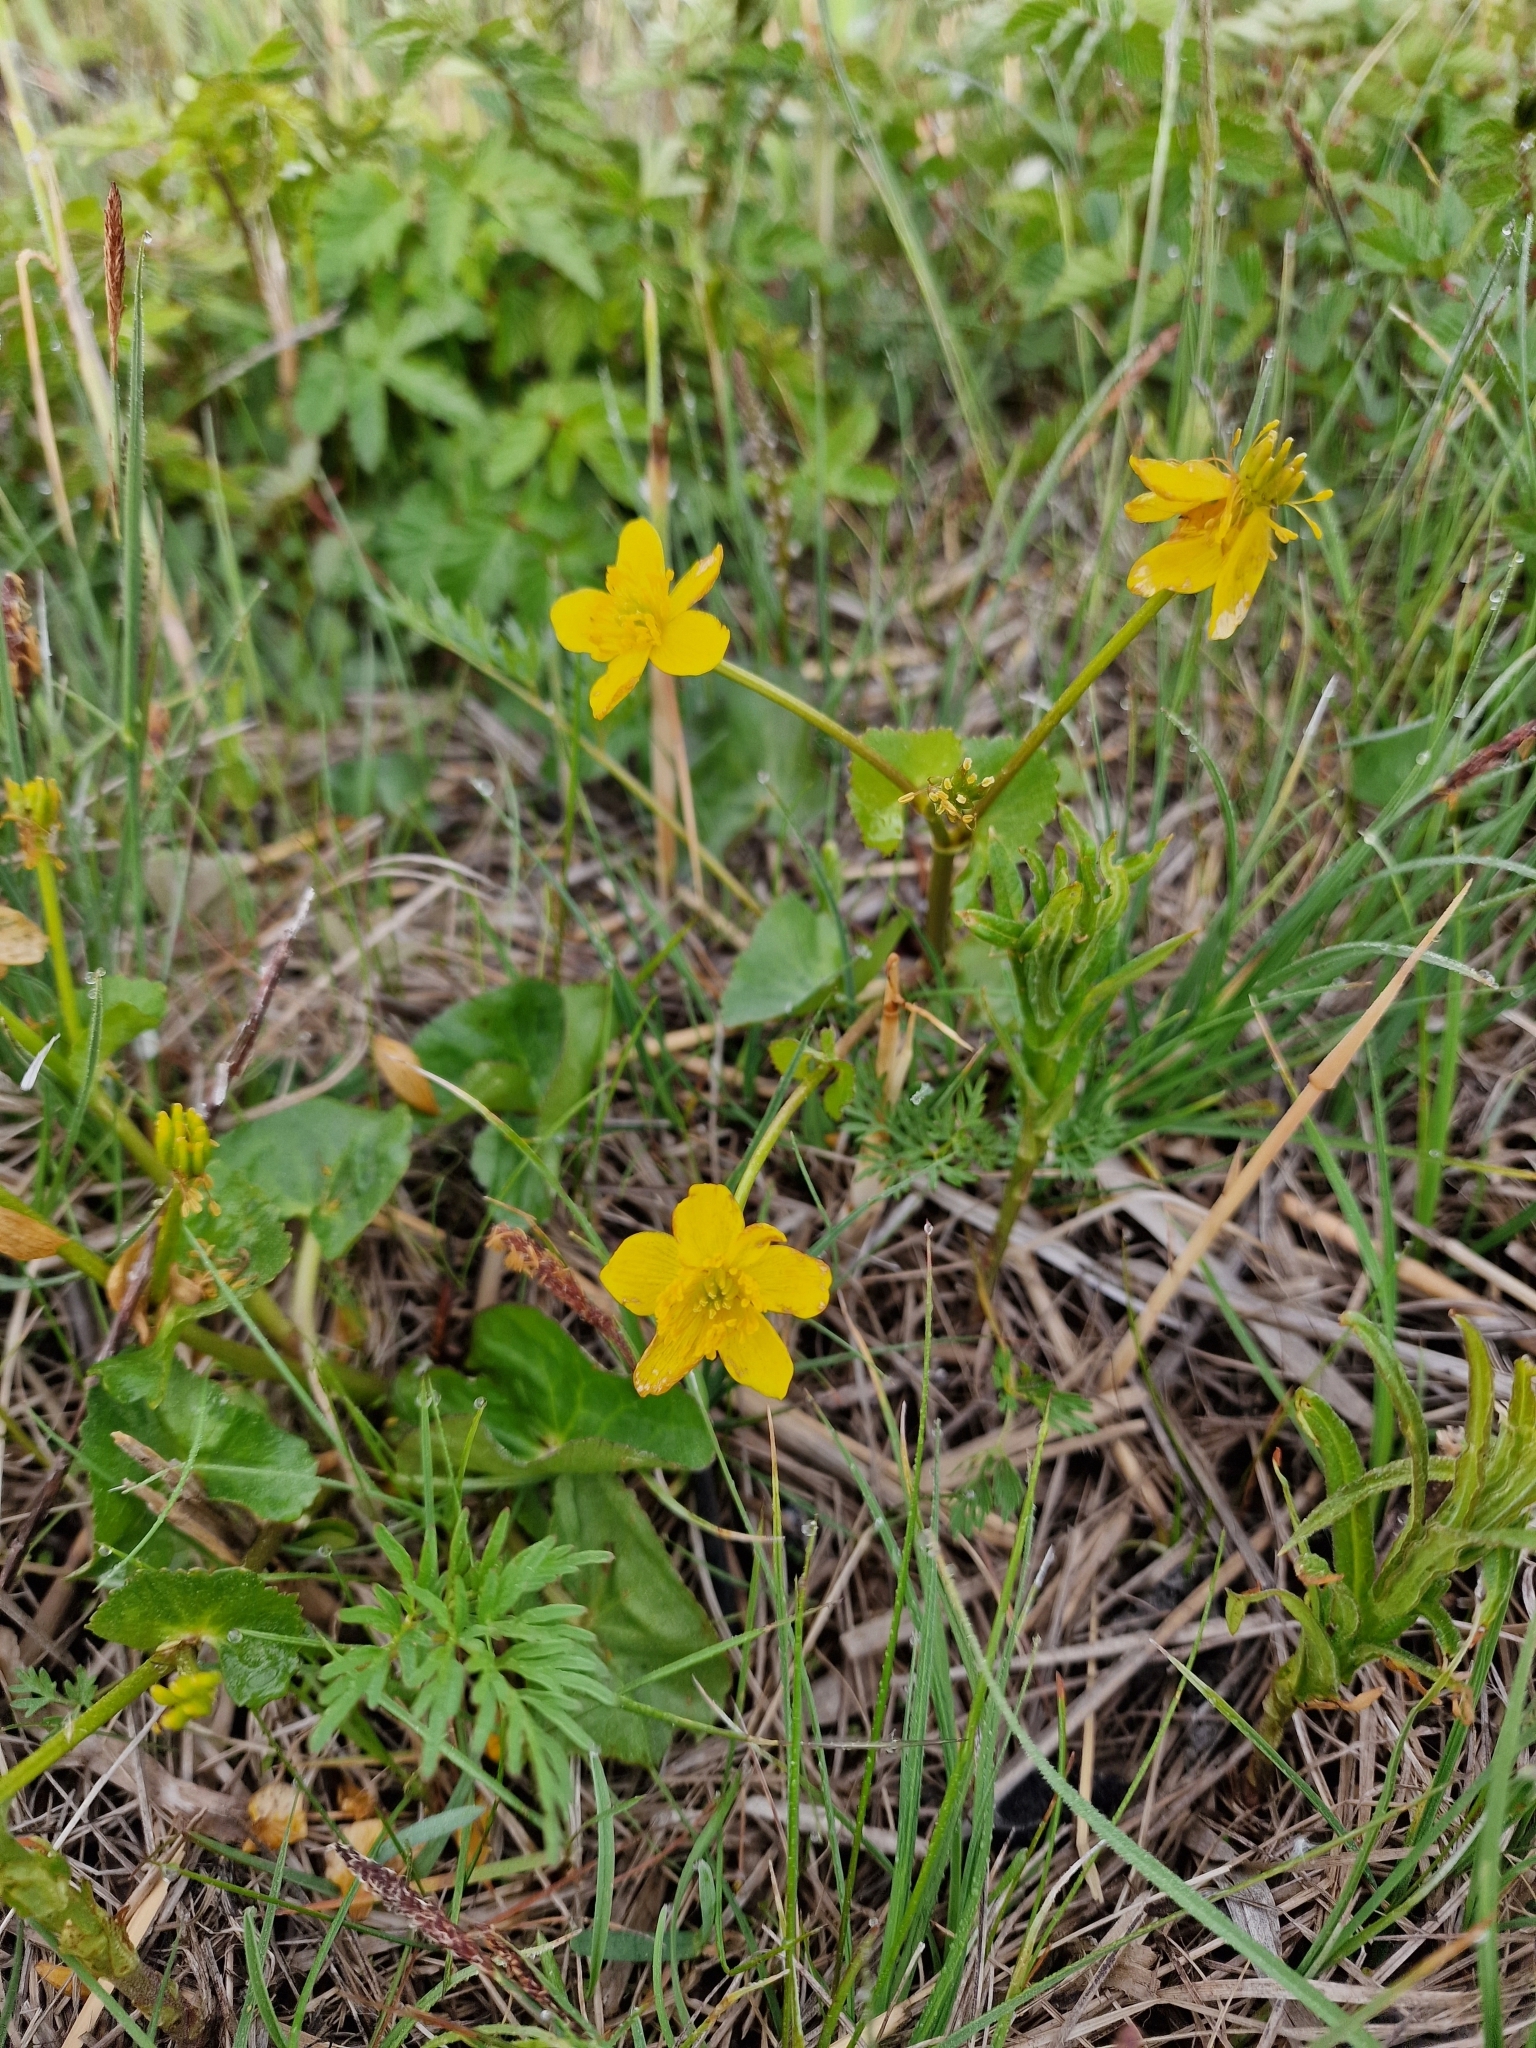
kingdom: Plantae
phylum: Tracheophyta
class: Magnoliopsida
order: Ranunculales
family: Ranunculaceae
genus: Caltha
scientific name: Caltha palustris
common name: Marsh marigold
